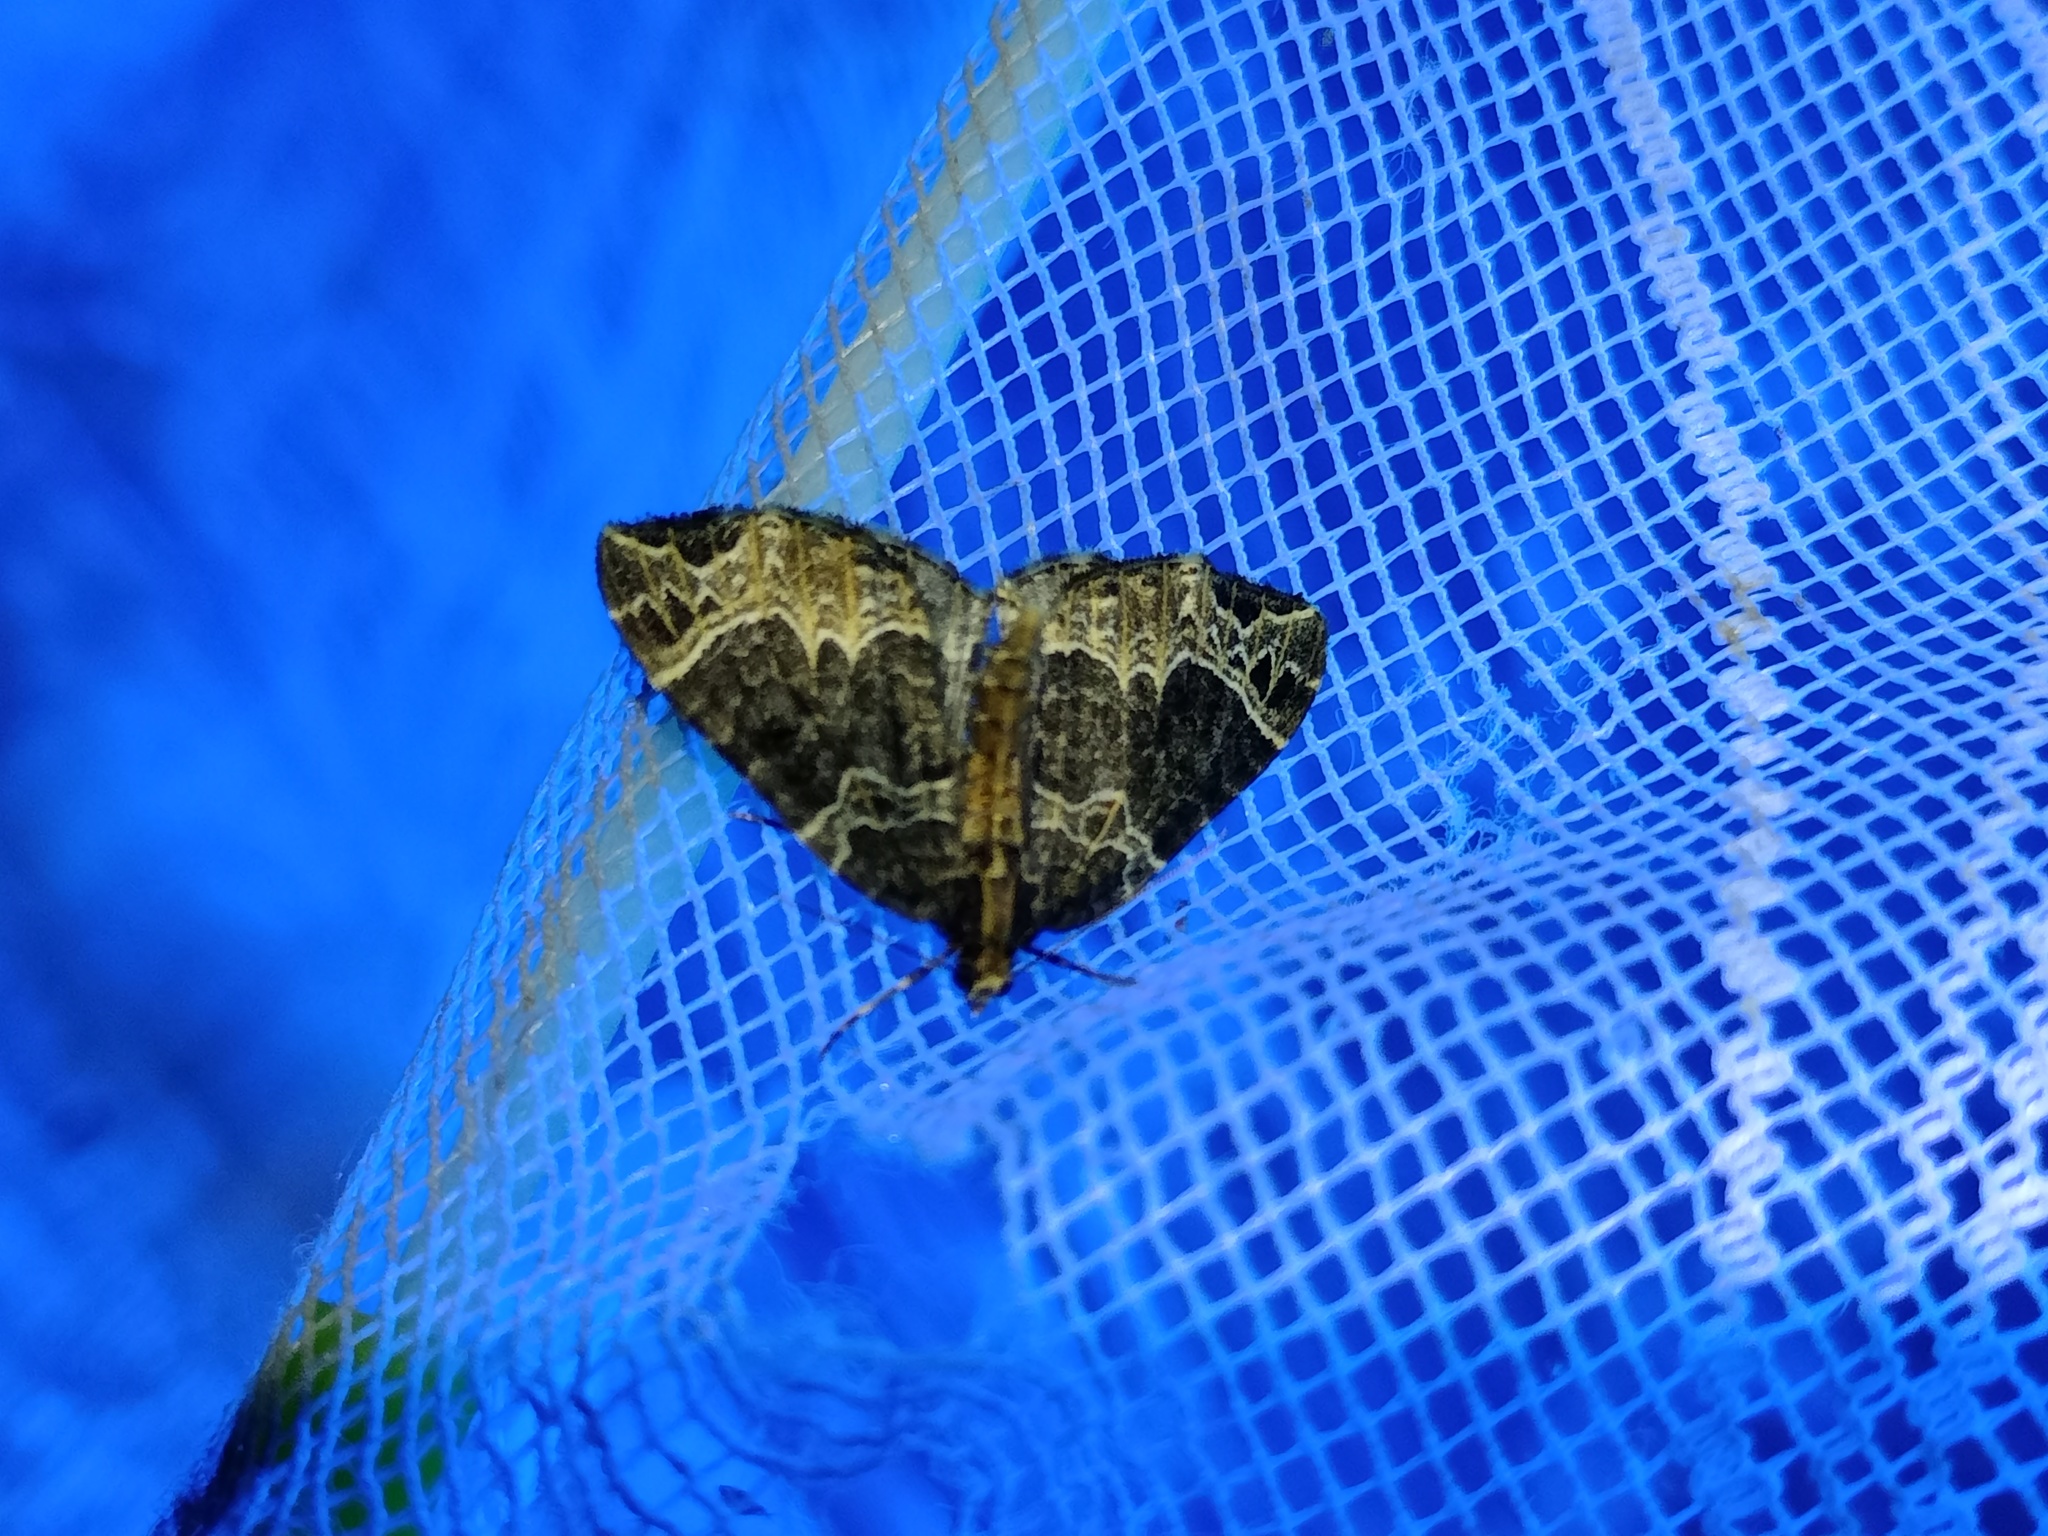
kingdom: Animalia
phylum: Arthropoda
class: Insecta
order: Lepidoptera
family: Geometridae
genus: Ecliptopera
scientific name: Ecliptopera silaceata
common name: Small phoenix
